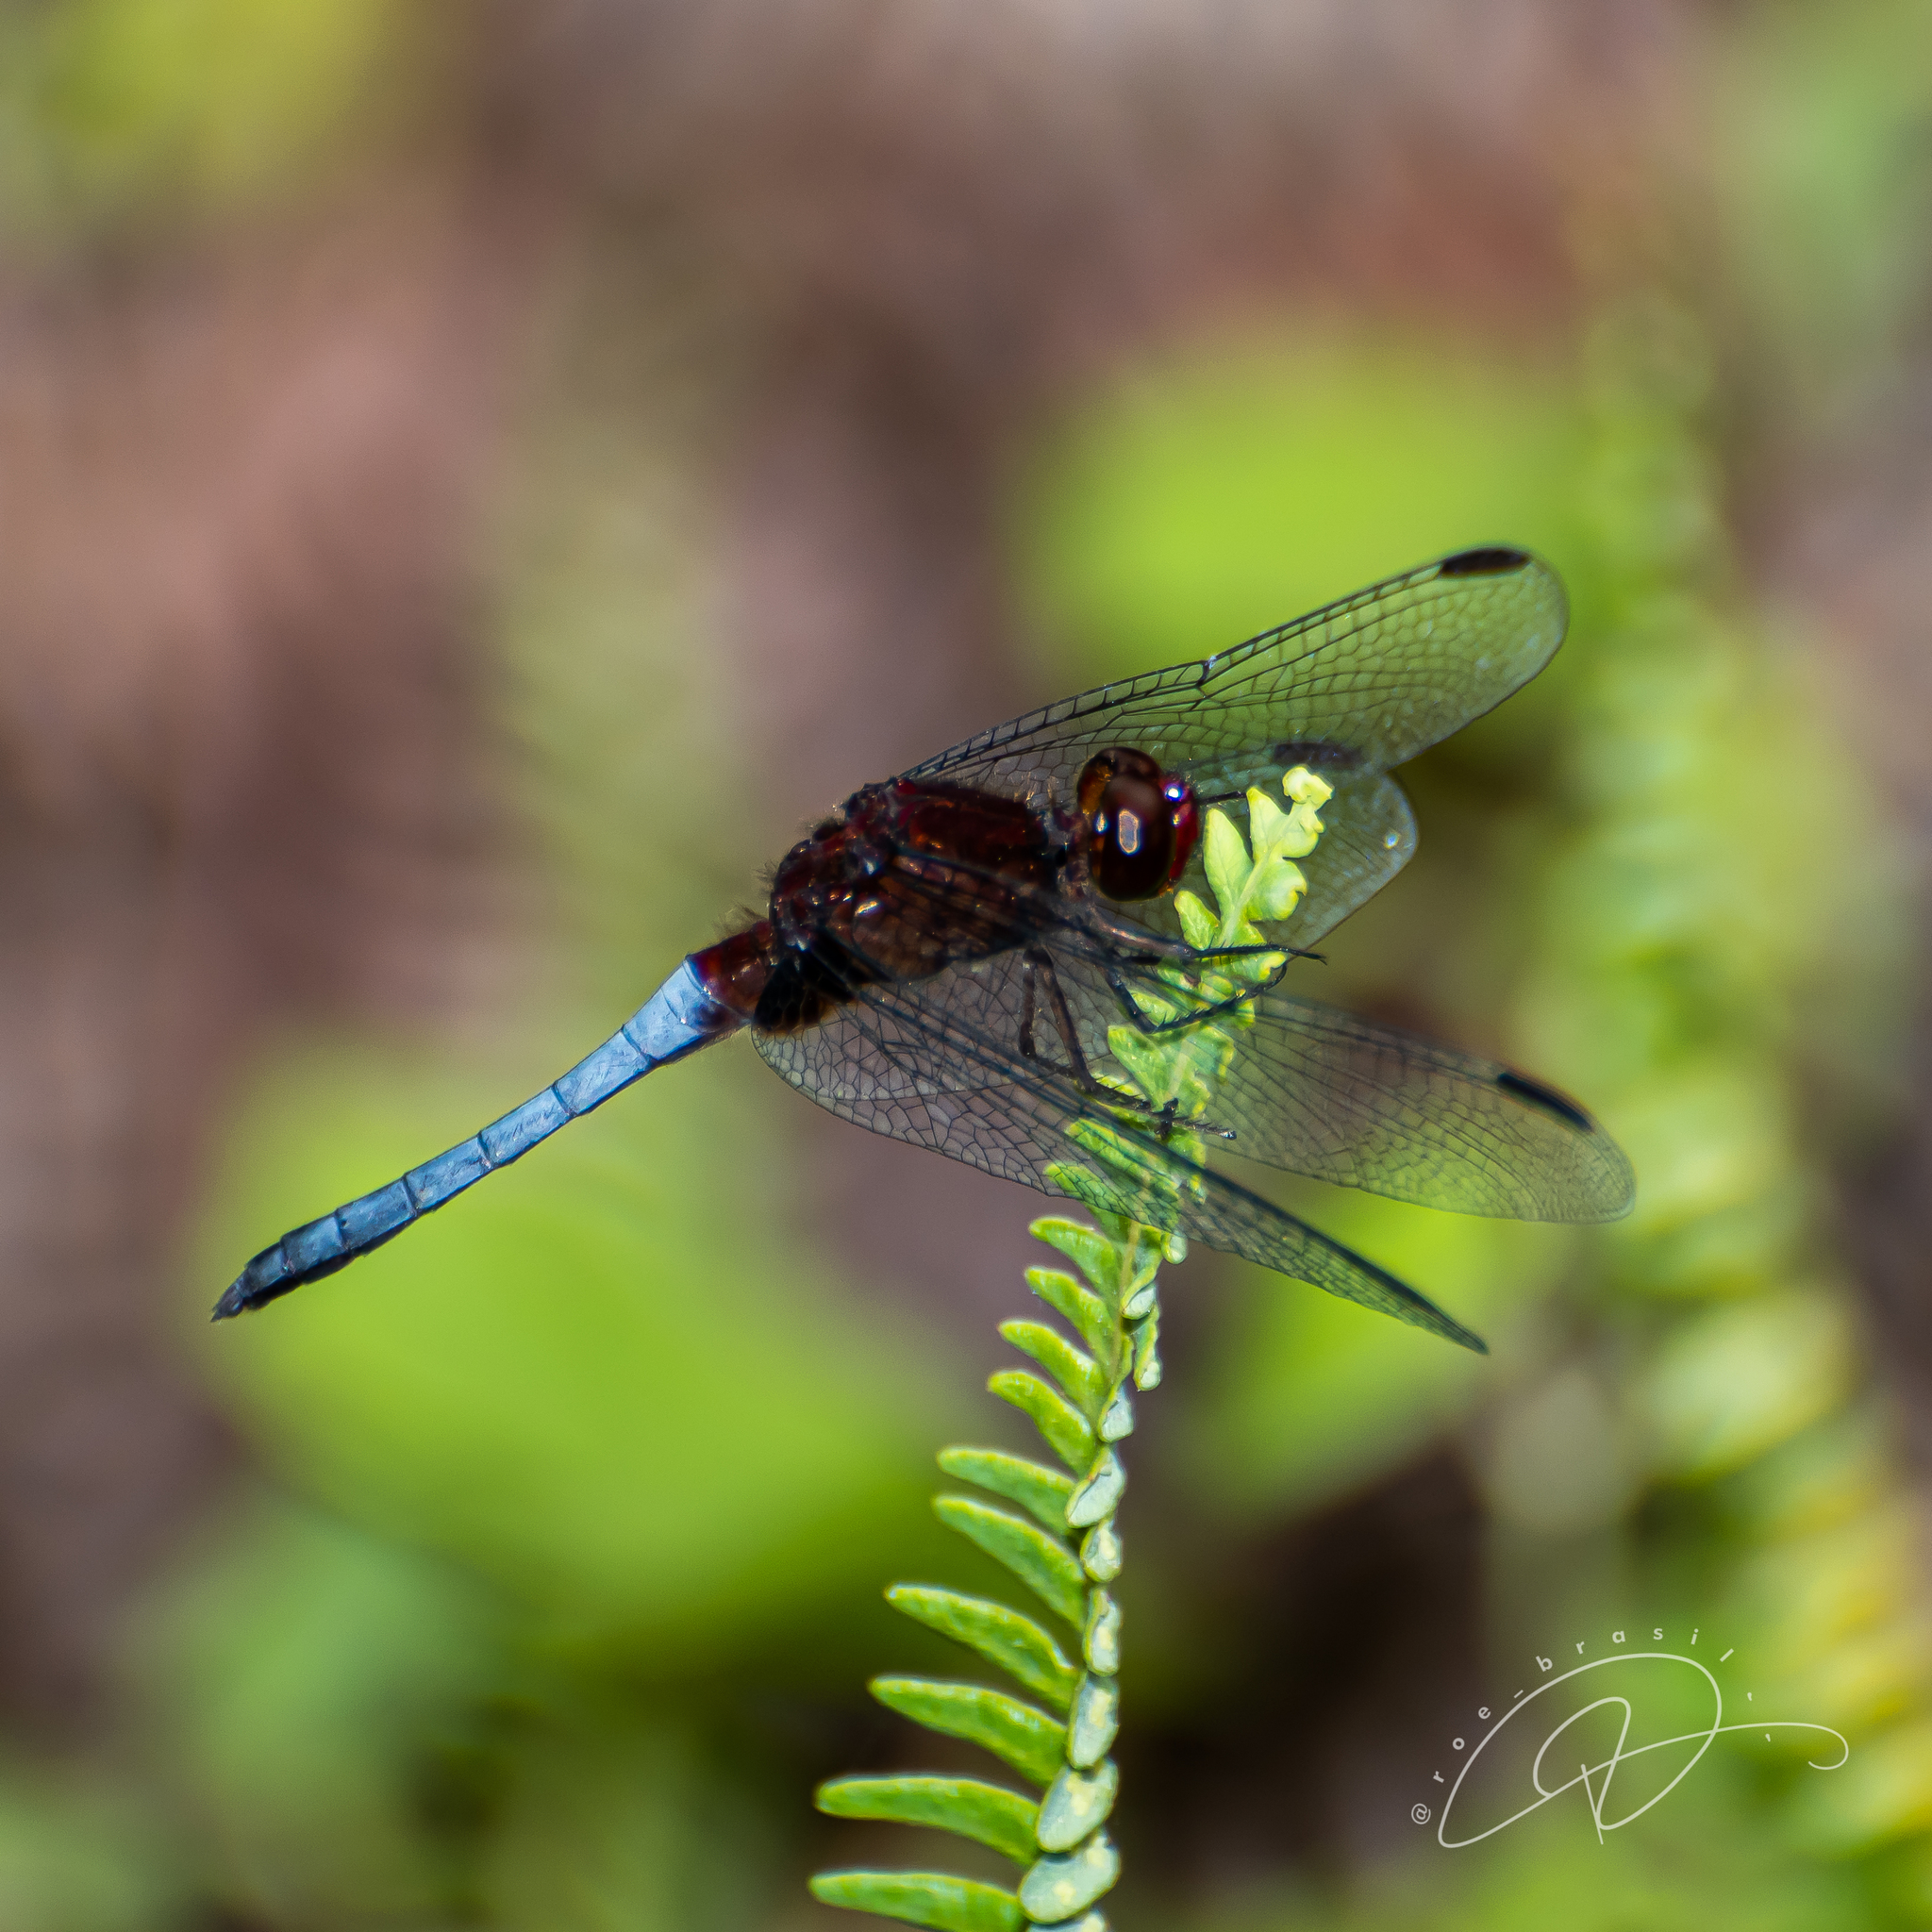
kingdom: Animalia
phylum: Arthropoda
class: Insecta
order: Odonata
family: Libellulidae
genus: Erythrodiplax
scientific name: Erythrodiplax melanorubra
